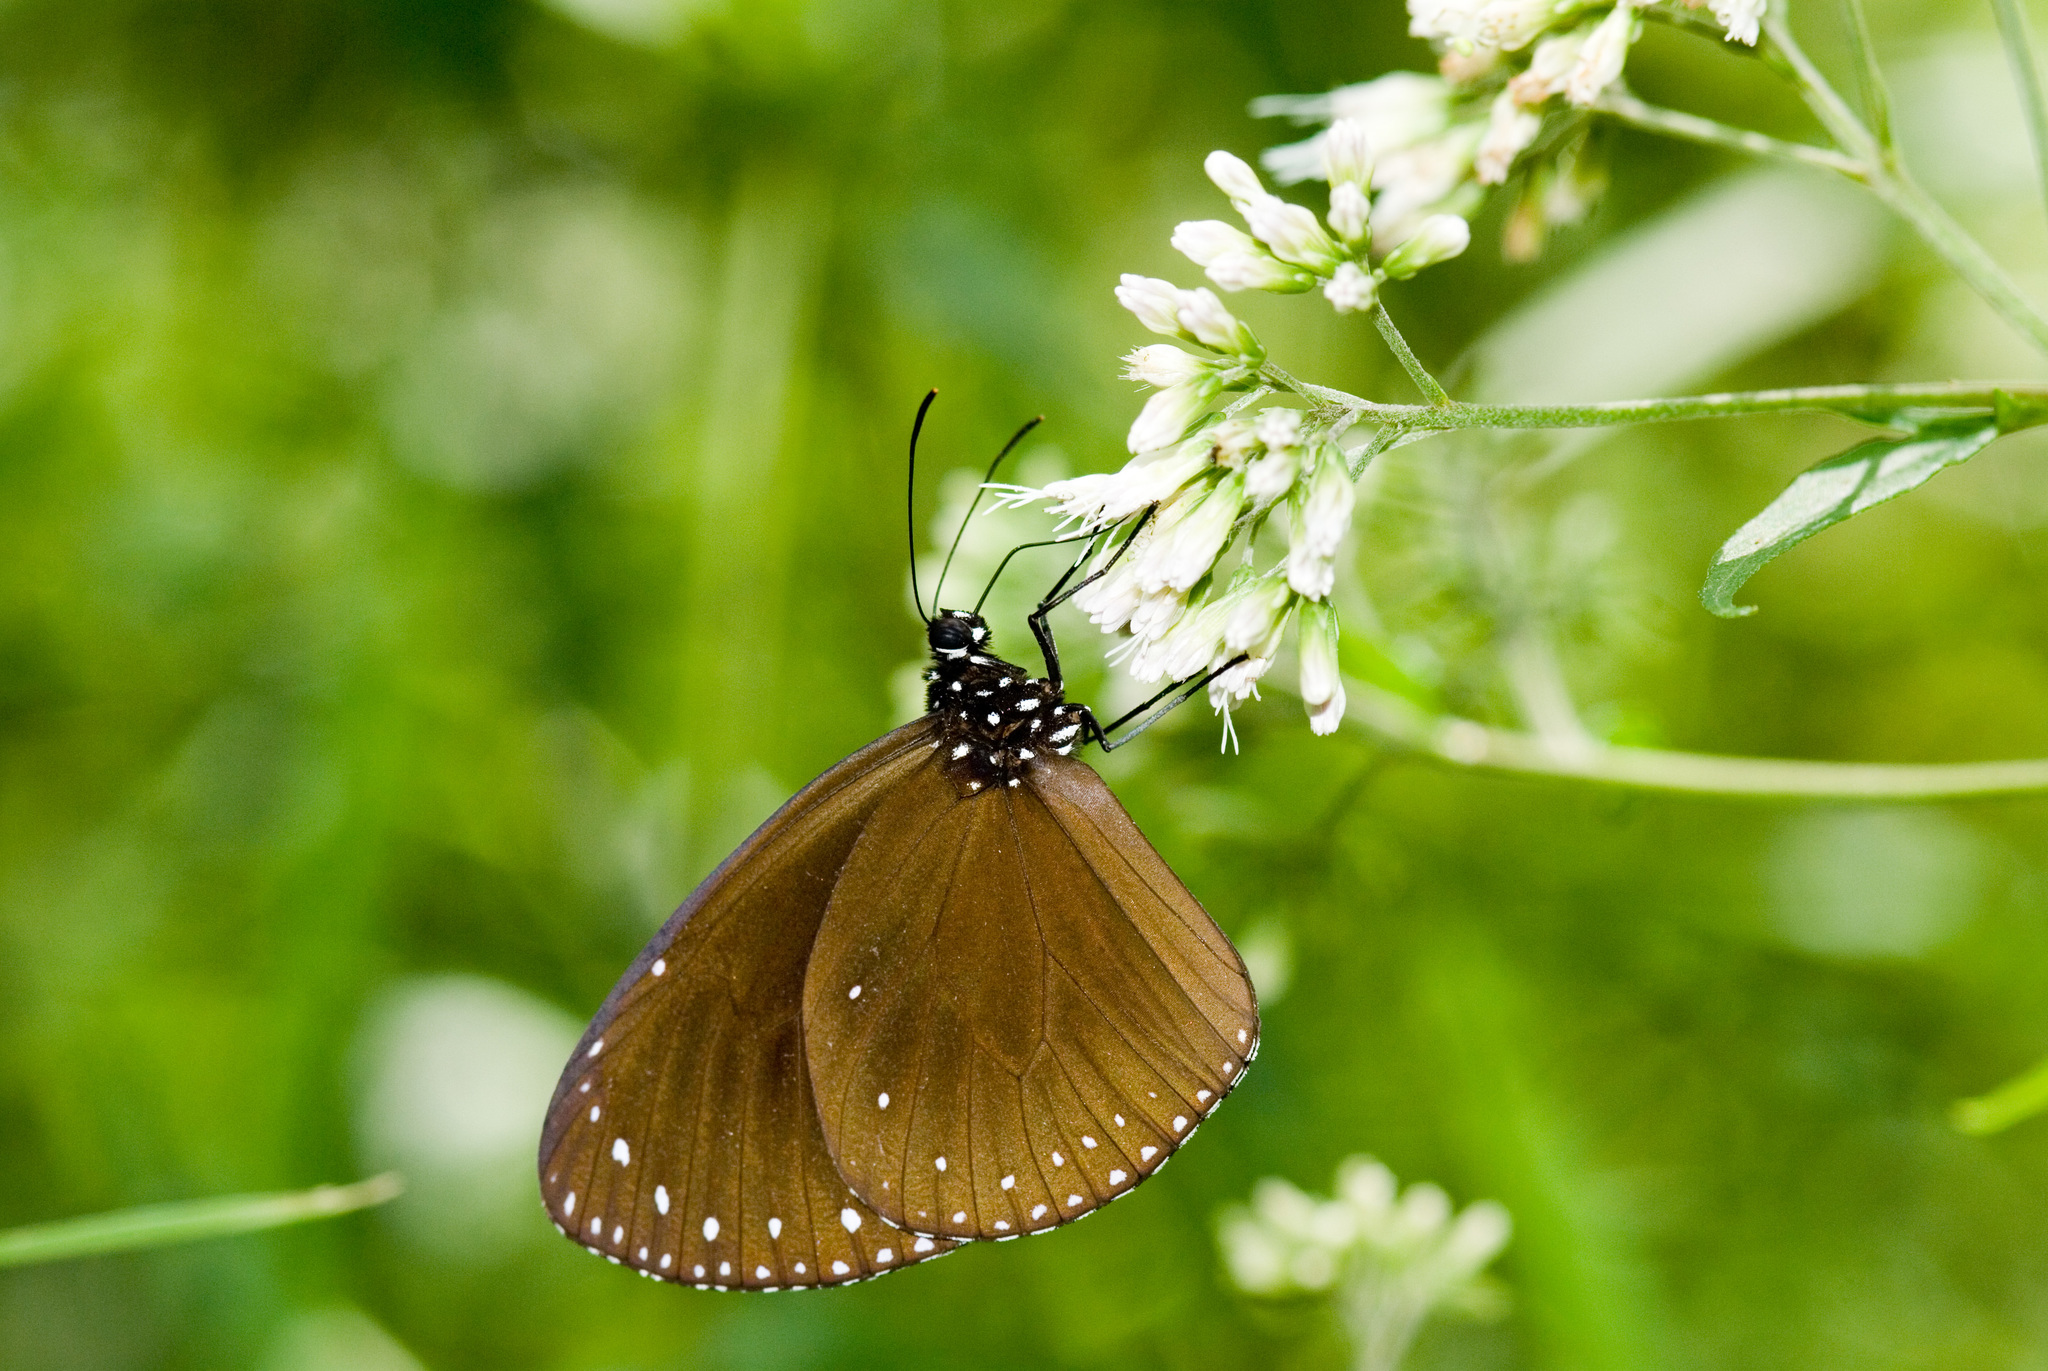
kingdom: Animalia
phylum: Arthropoda
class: Insecta
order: Lepidoptera
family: Nymphalidae
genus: Euploea
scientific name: Euploea tulliolus
